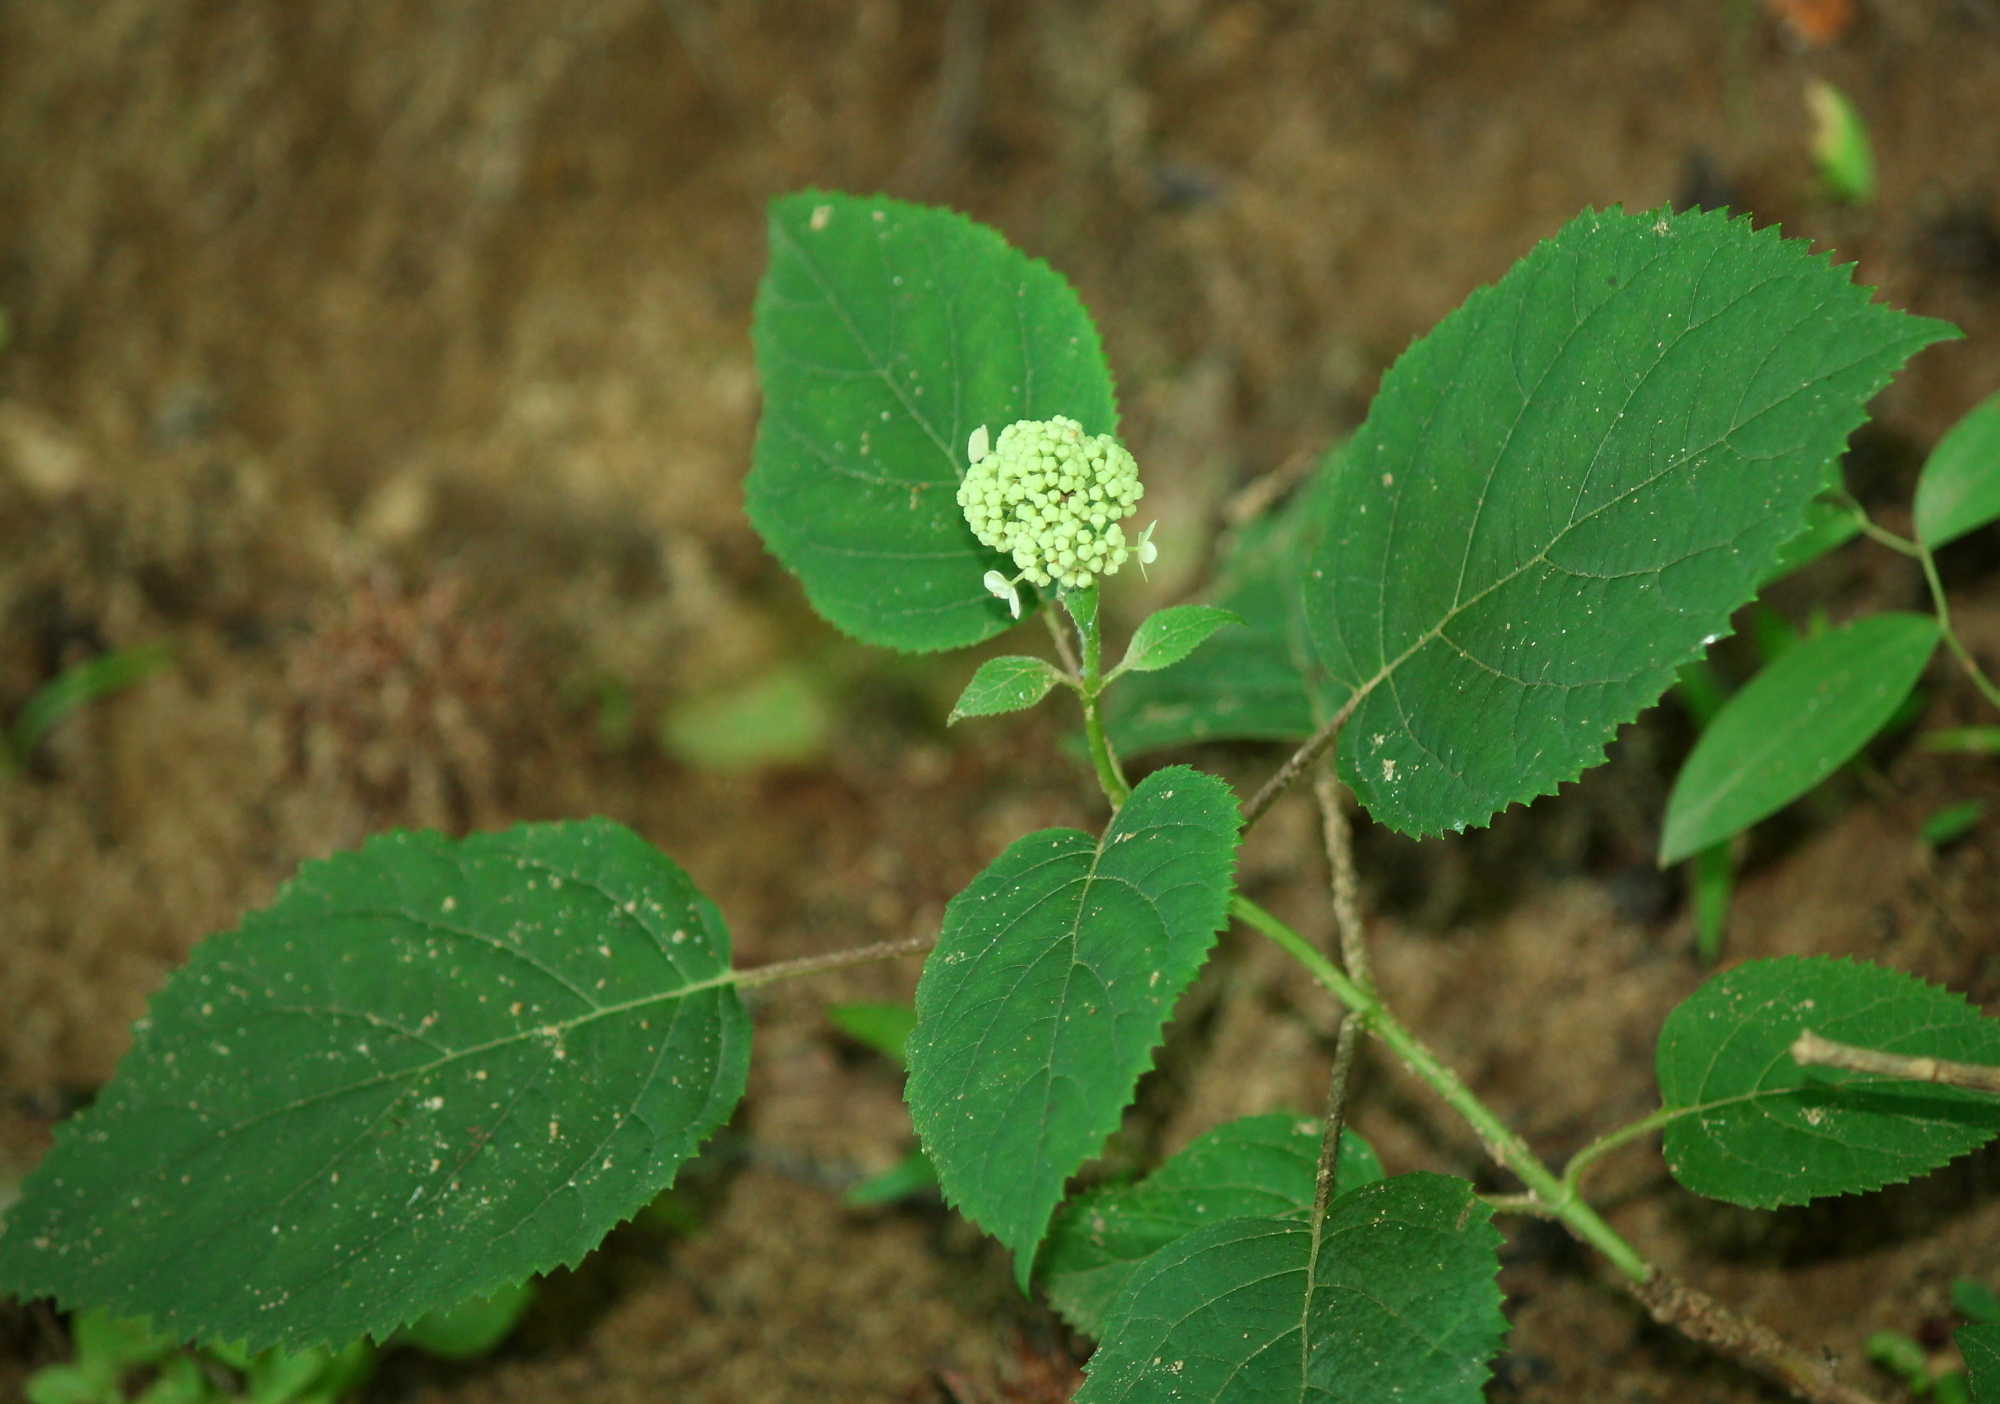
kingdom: Plantae
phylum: Tracheophyta
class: Magnoliopsida
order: Cornales
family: Hydrangeaceae
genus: Hydrangea
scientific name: Hydrangea arborescens
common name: Sevenbark
